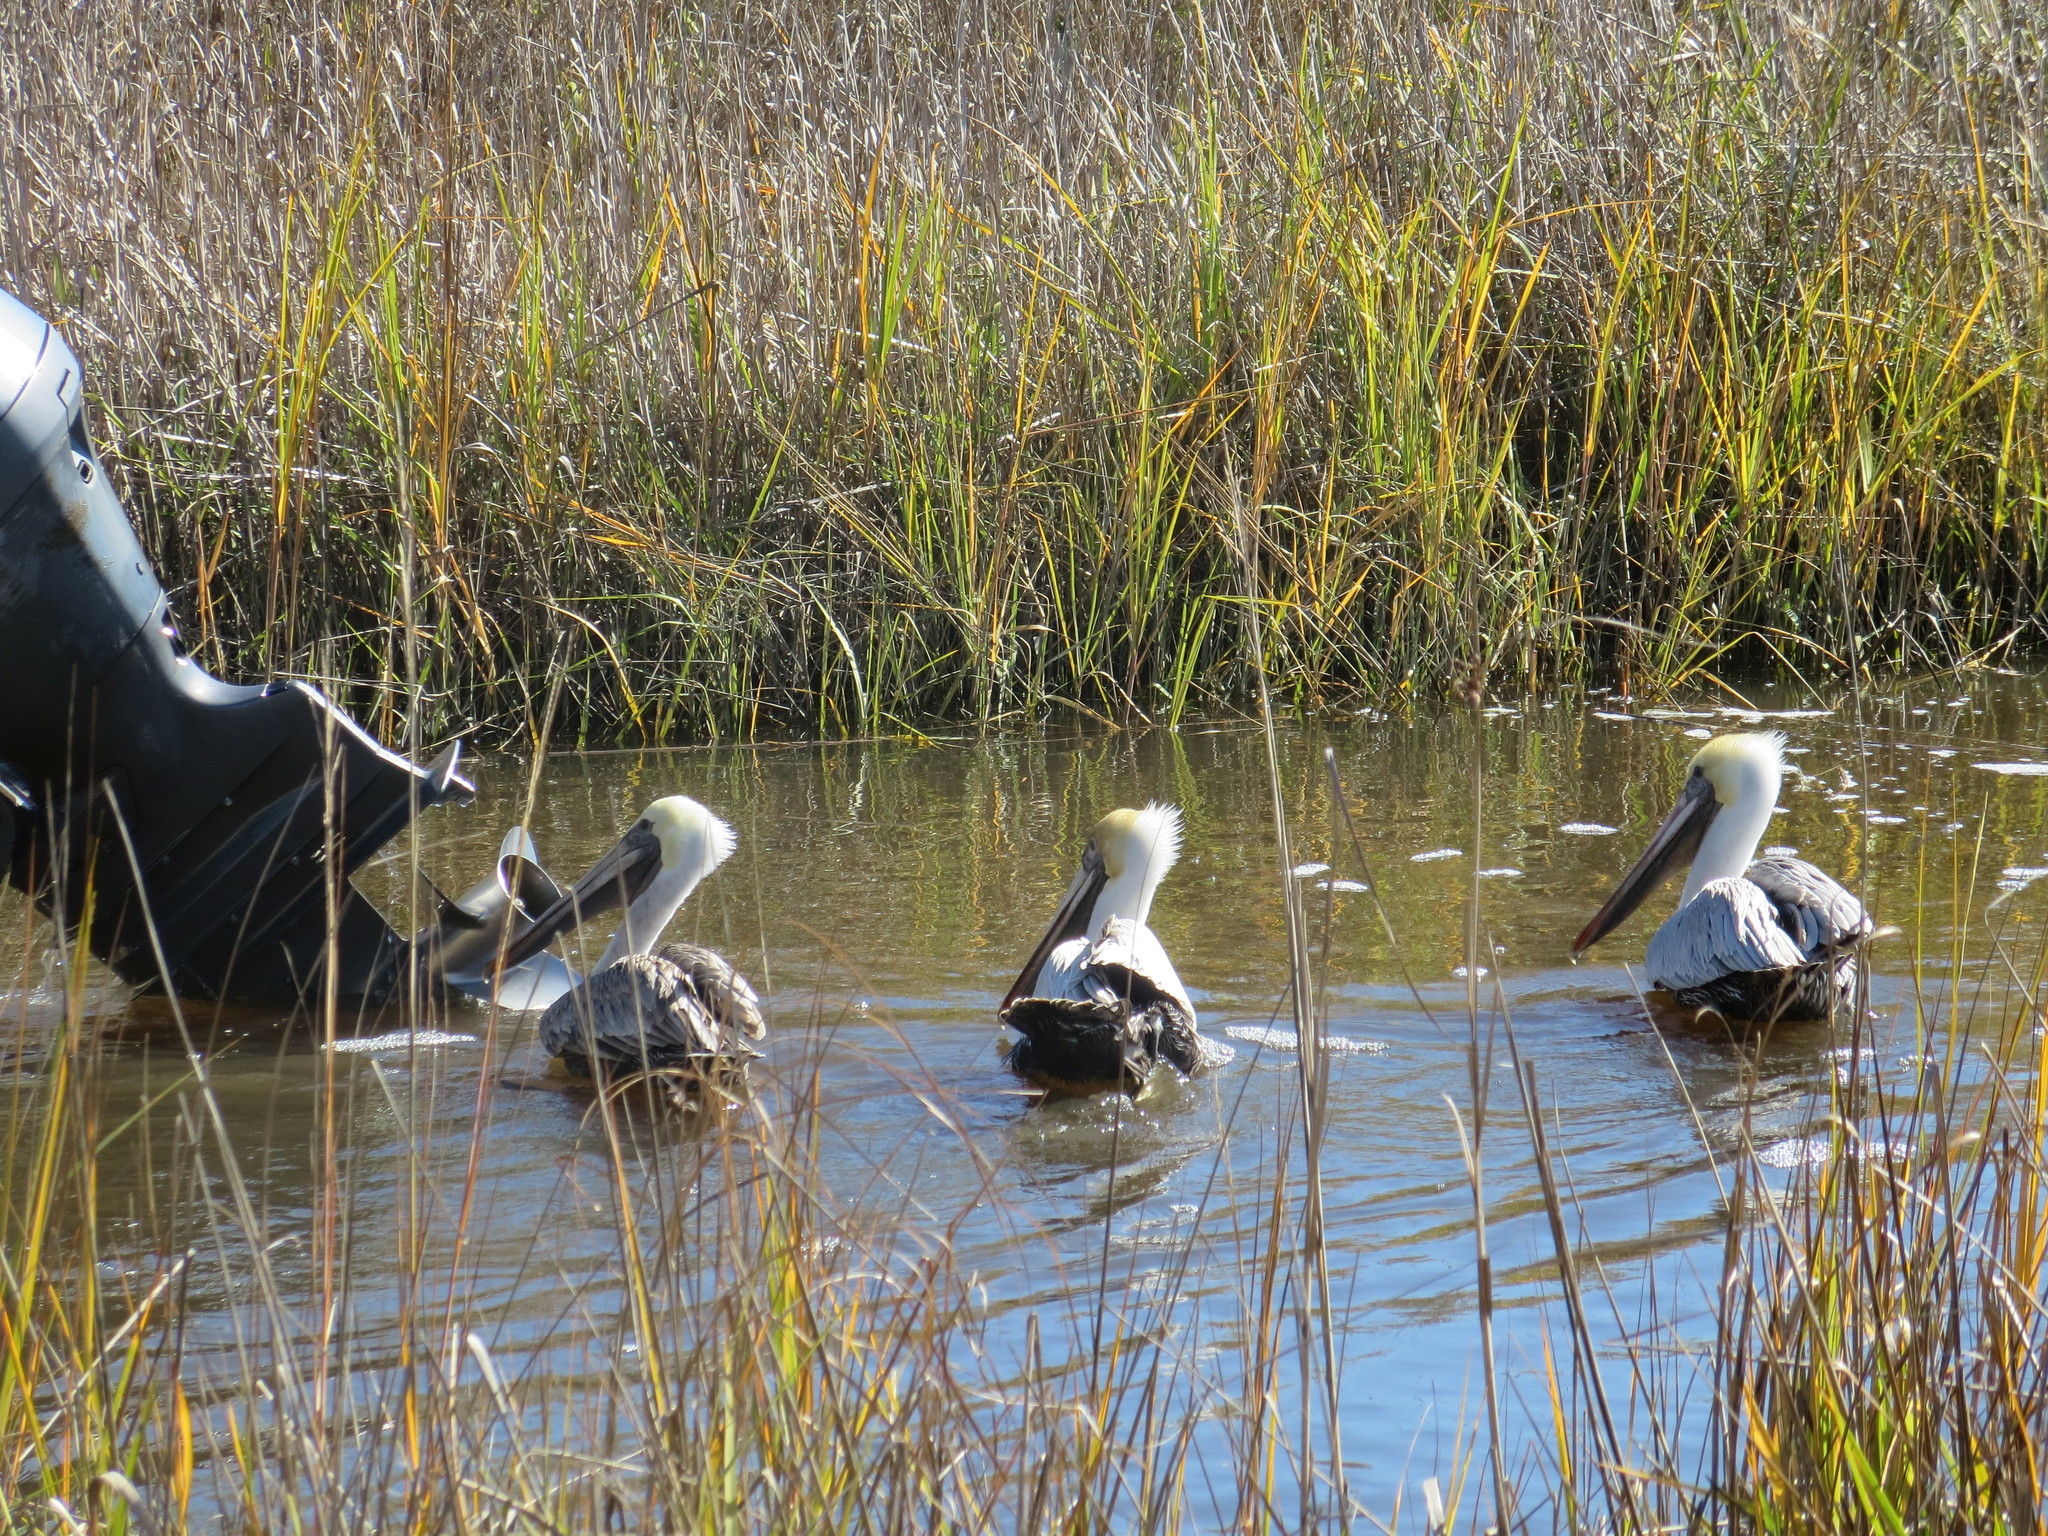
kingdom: Animalia
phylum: Chordata
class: Aves
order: Pelecaniformes
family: Pelecanidae
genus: Pelecanus
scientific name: Pelecanus occidentalis
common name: Brown pelican
